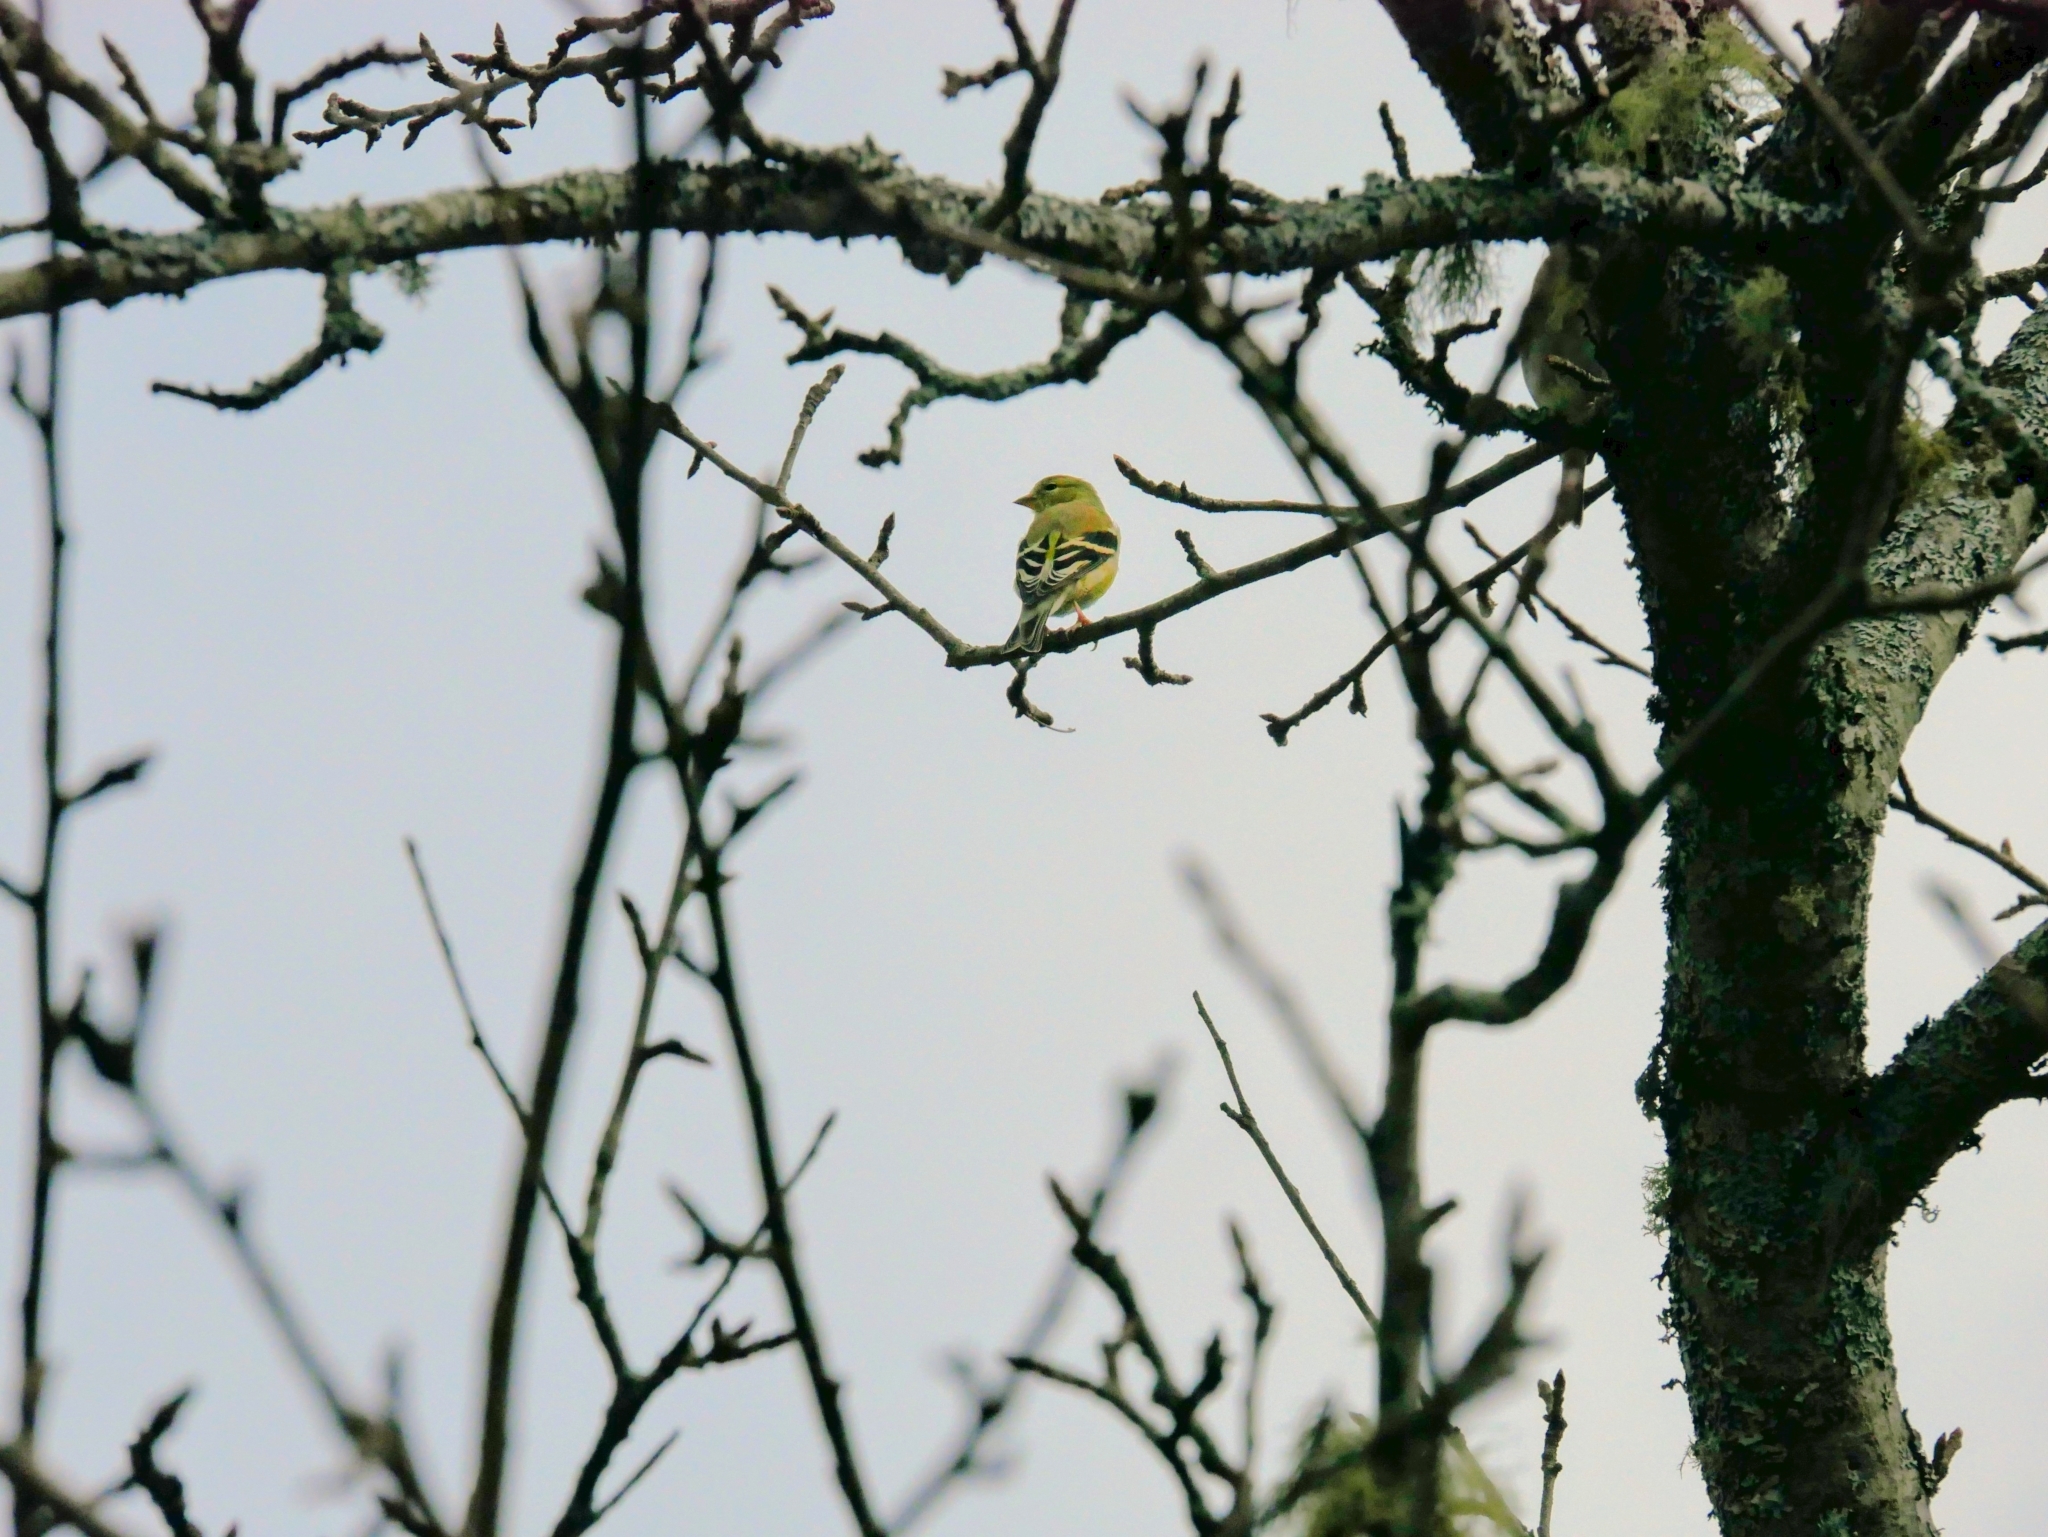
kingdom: Animalia
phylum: Chordata
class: Aves
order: Passeriformes
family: Fringillidae
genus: Spinus
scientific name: Spinus tristis
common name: American goldfinch
